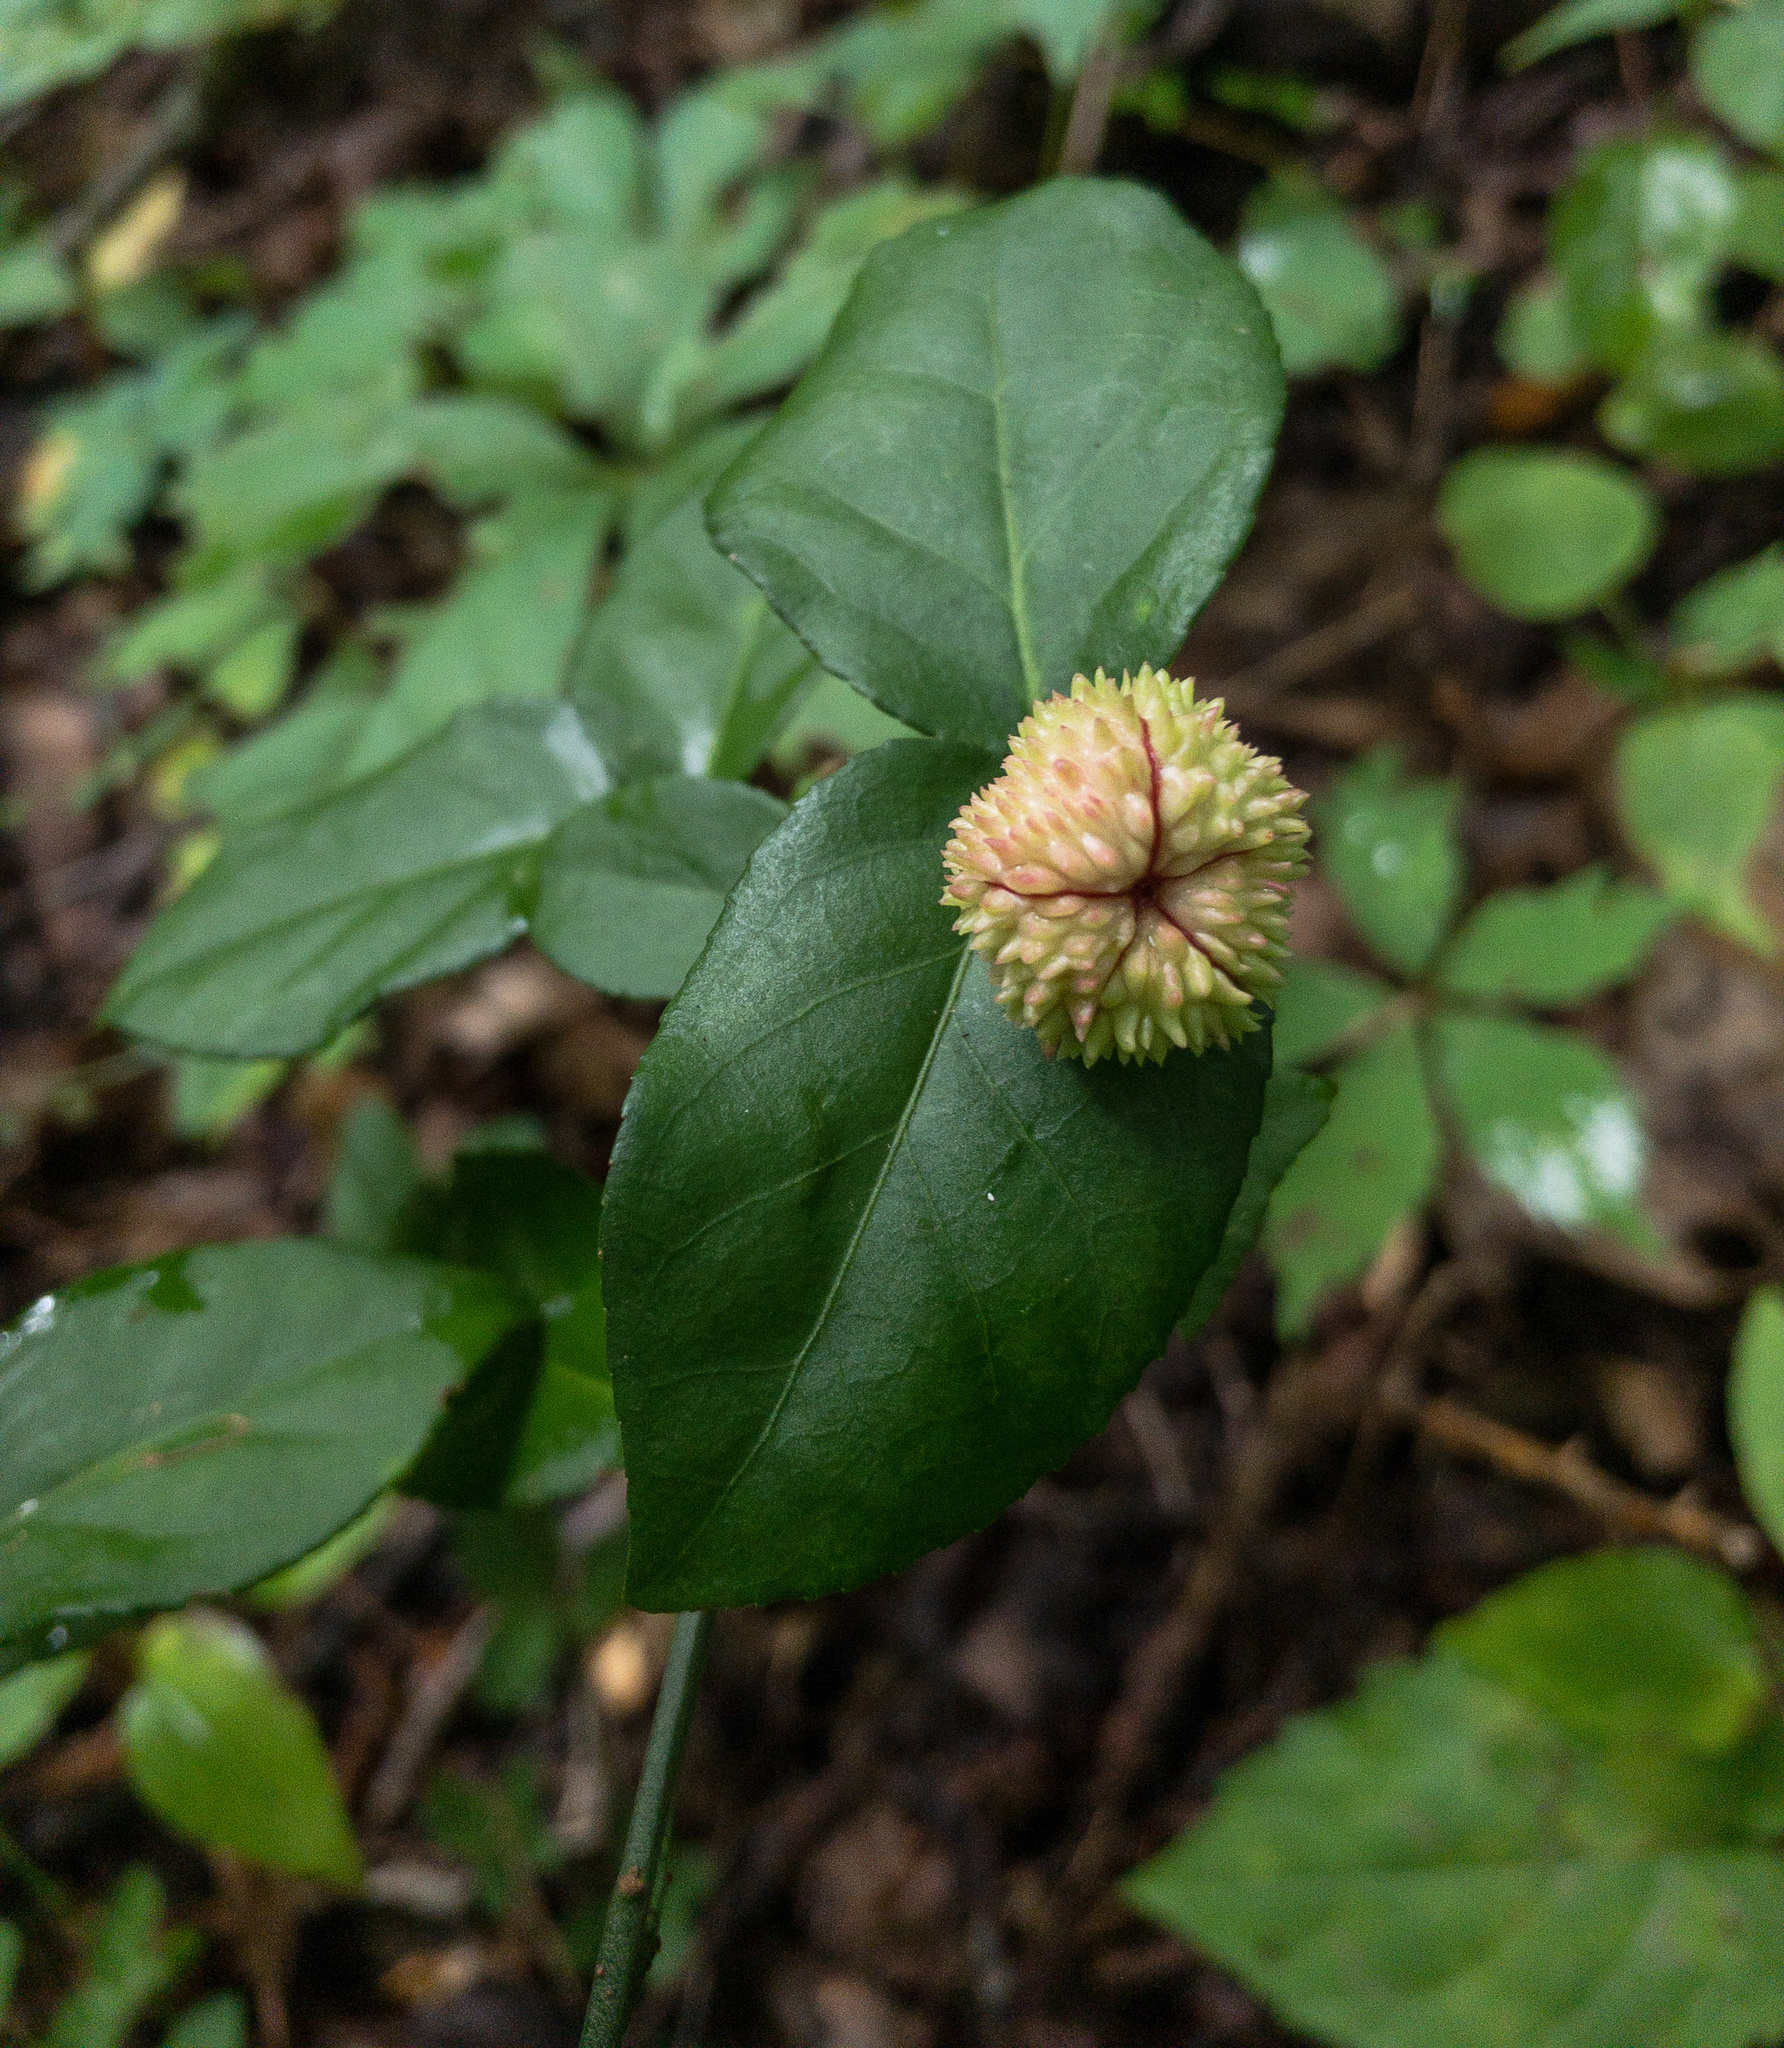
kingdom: Plantae
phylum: Tracheophyta
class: Magnoliopsida
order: Celastrales
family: Celastraceae
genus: Euonymus
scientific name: Euonymus americanus
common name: Bursting-heart
